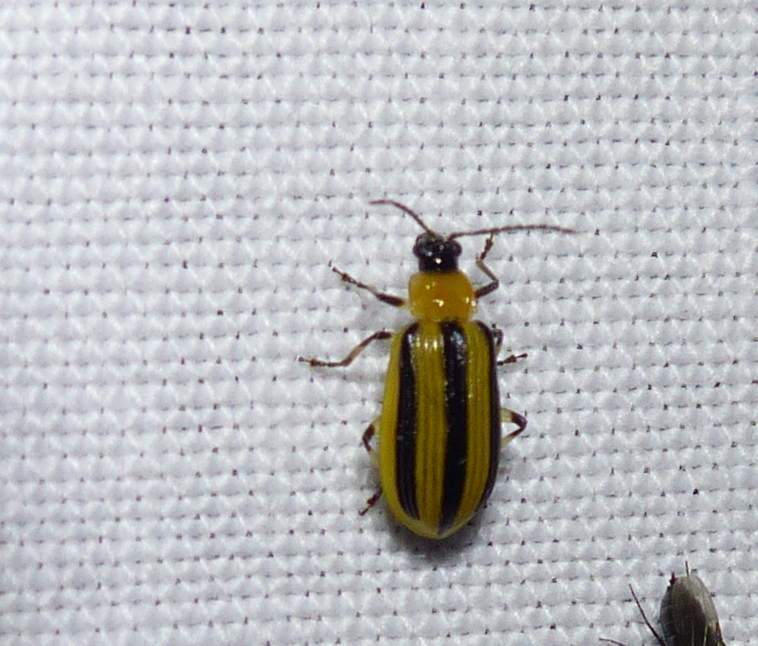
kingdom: Animalia
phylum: Arthropoda
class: Insecta
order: Coleoptera
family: Chrysomelidae
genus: Acalymma
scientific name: Acalymma vittatum
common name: Striped cucumber beetle
